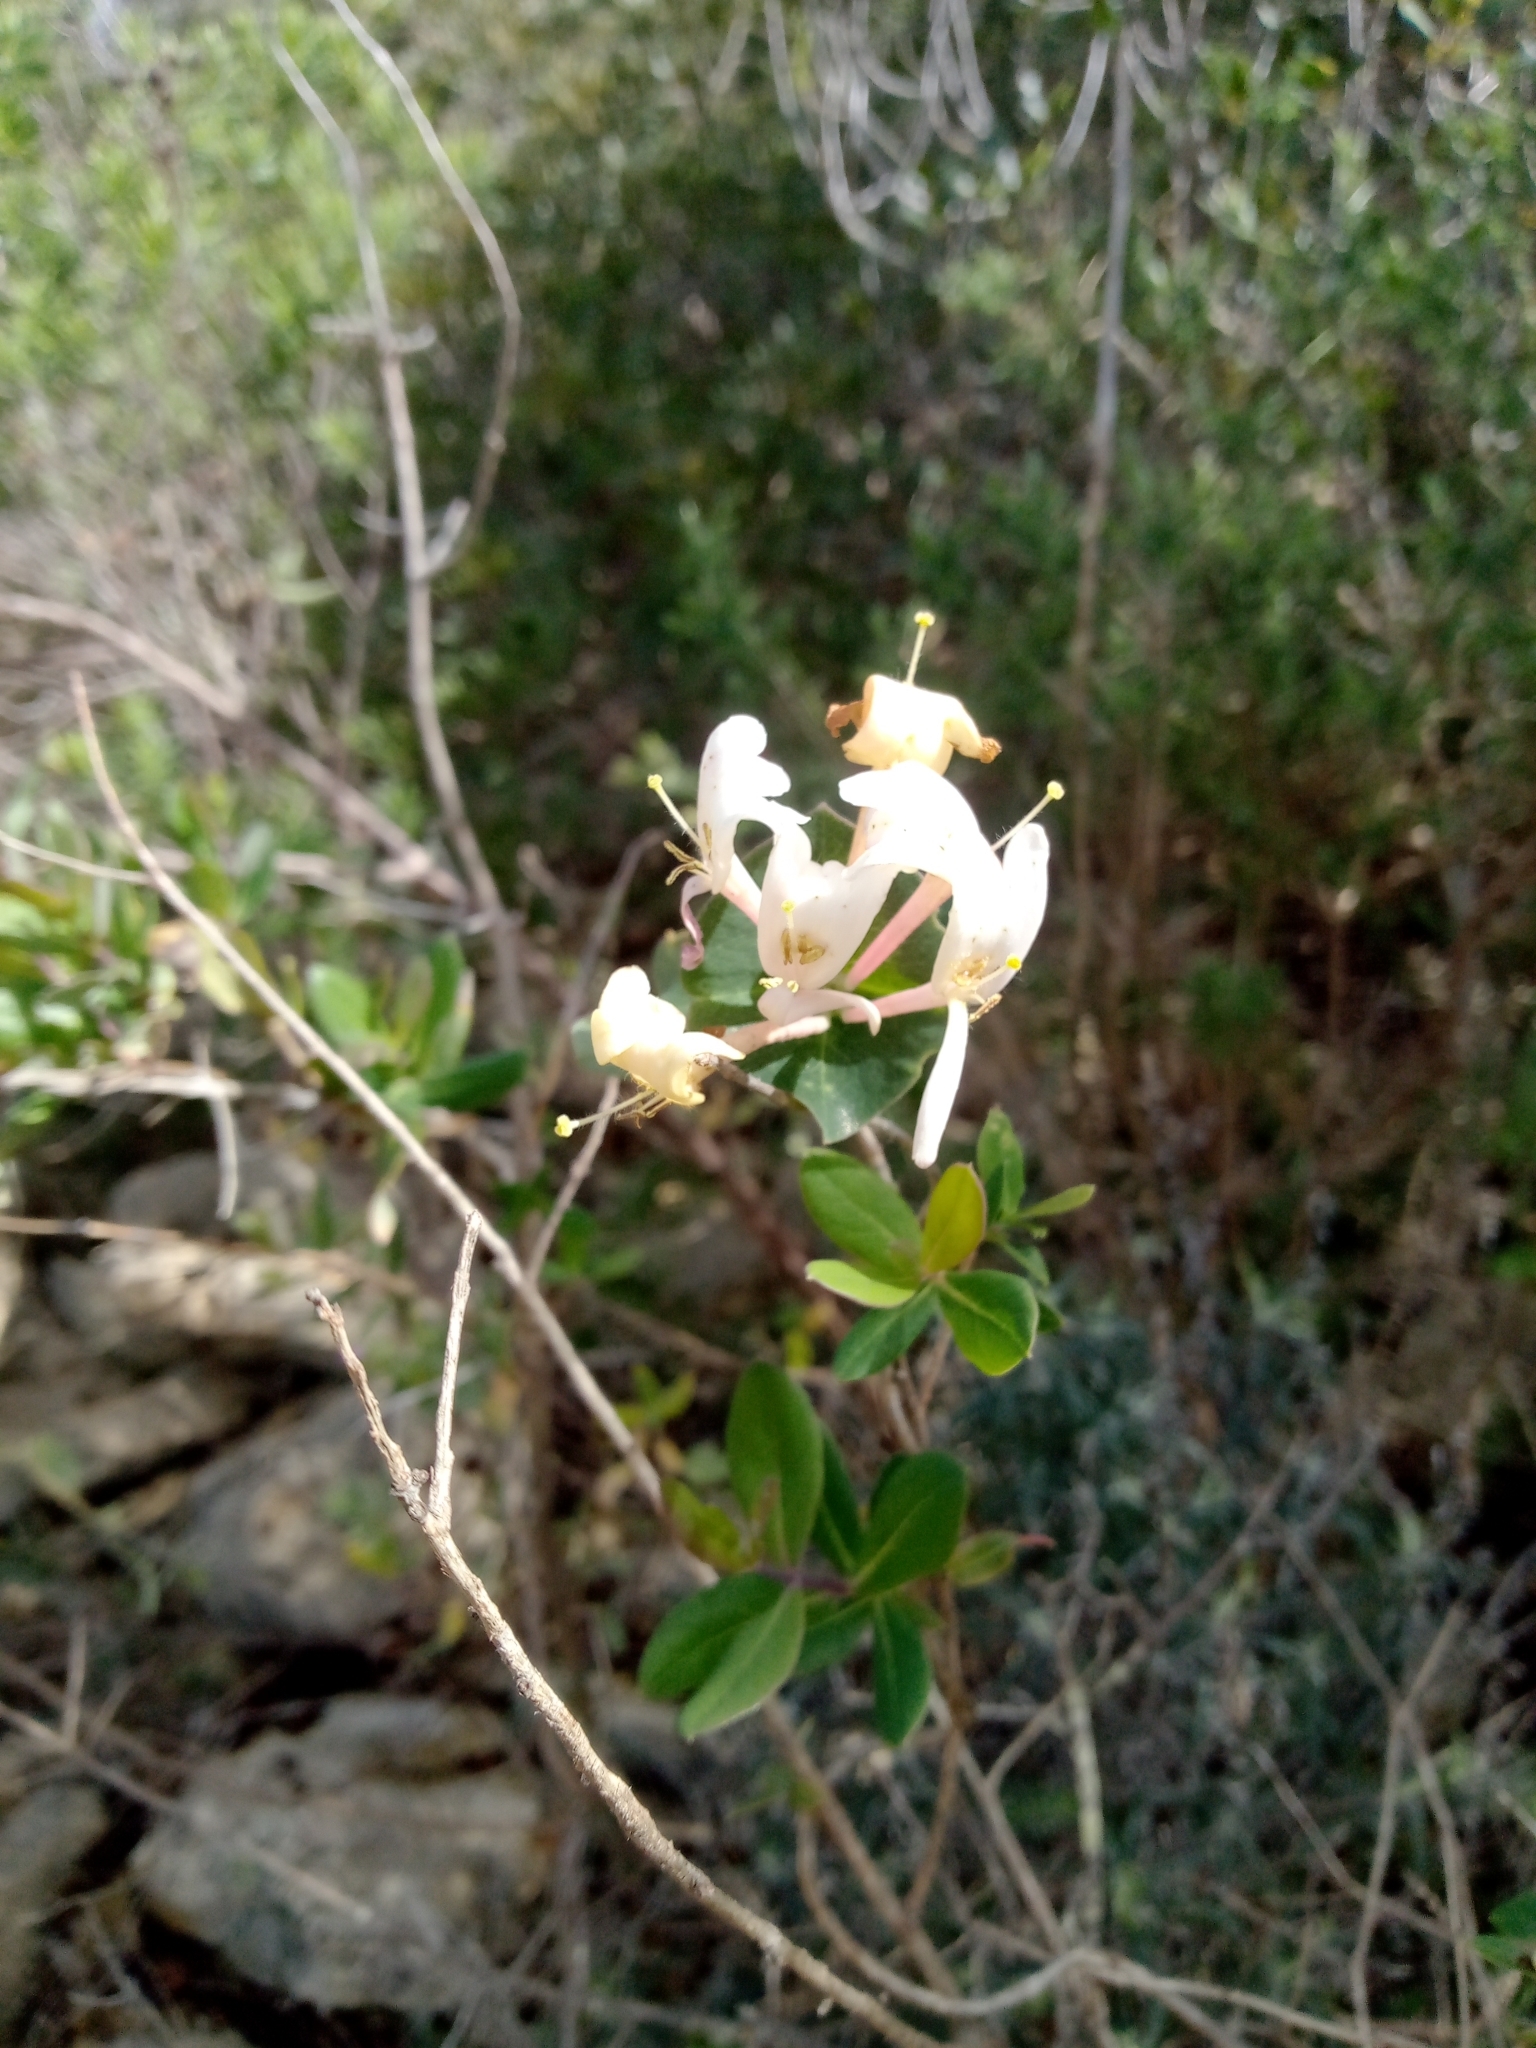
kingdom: Plantae
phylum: Tracheophyta
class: Magnoliopsida
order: Dipsacales
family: Caprifoliaceae
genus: Lonicera
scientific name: Lonicera implexa
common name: Minorca honeysuckle
